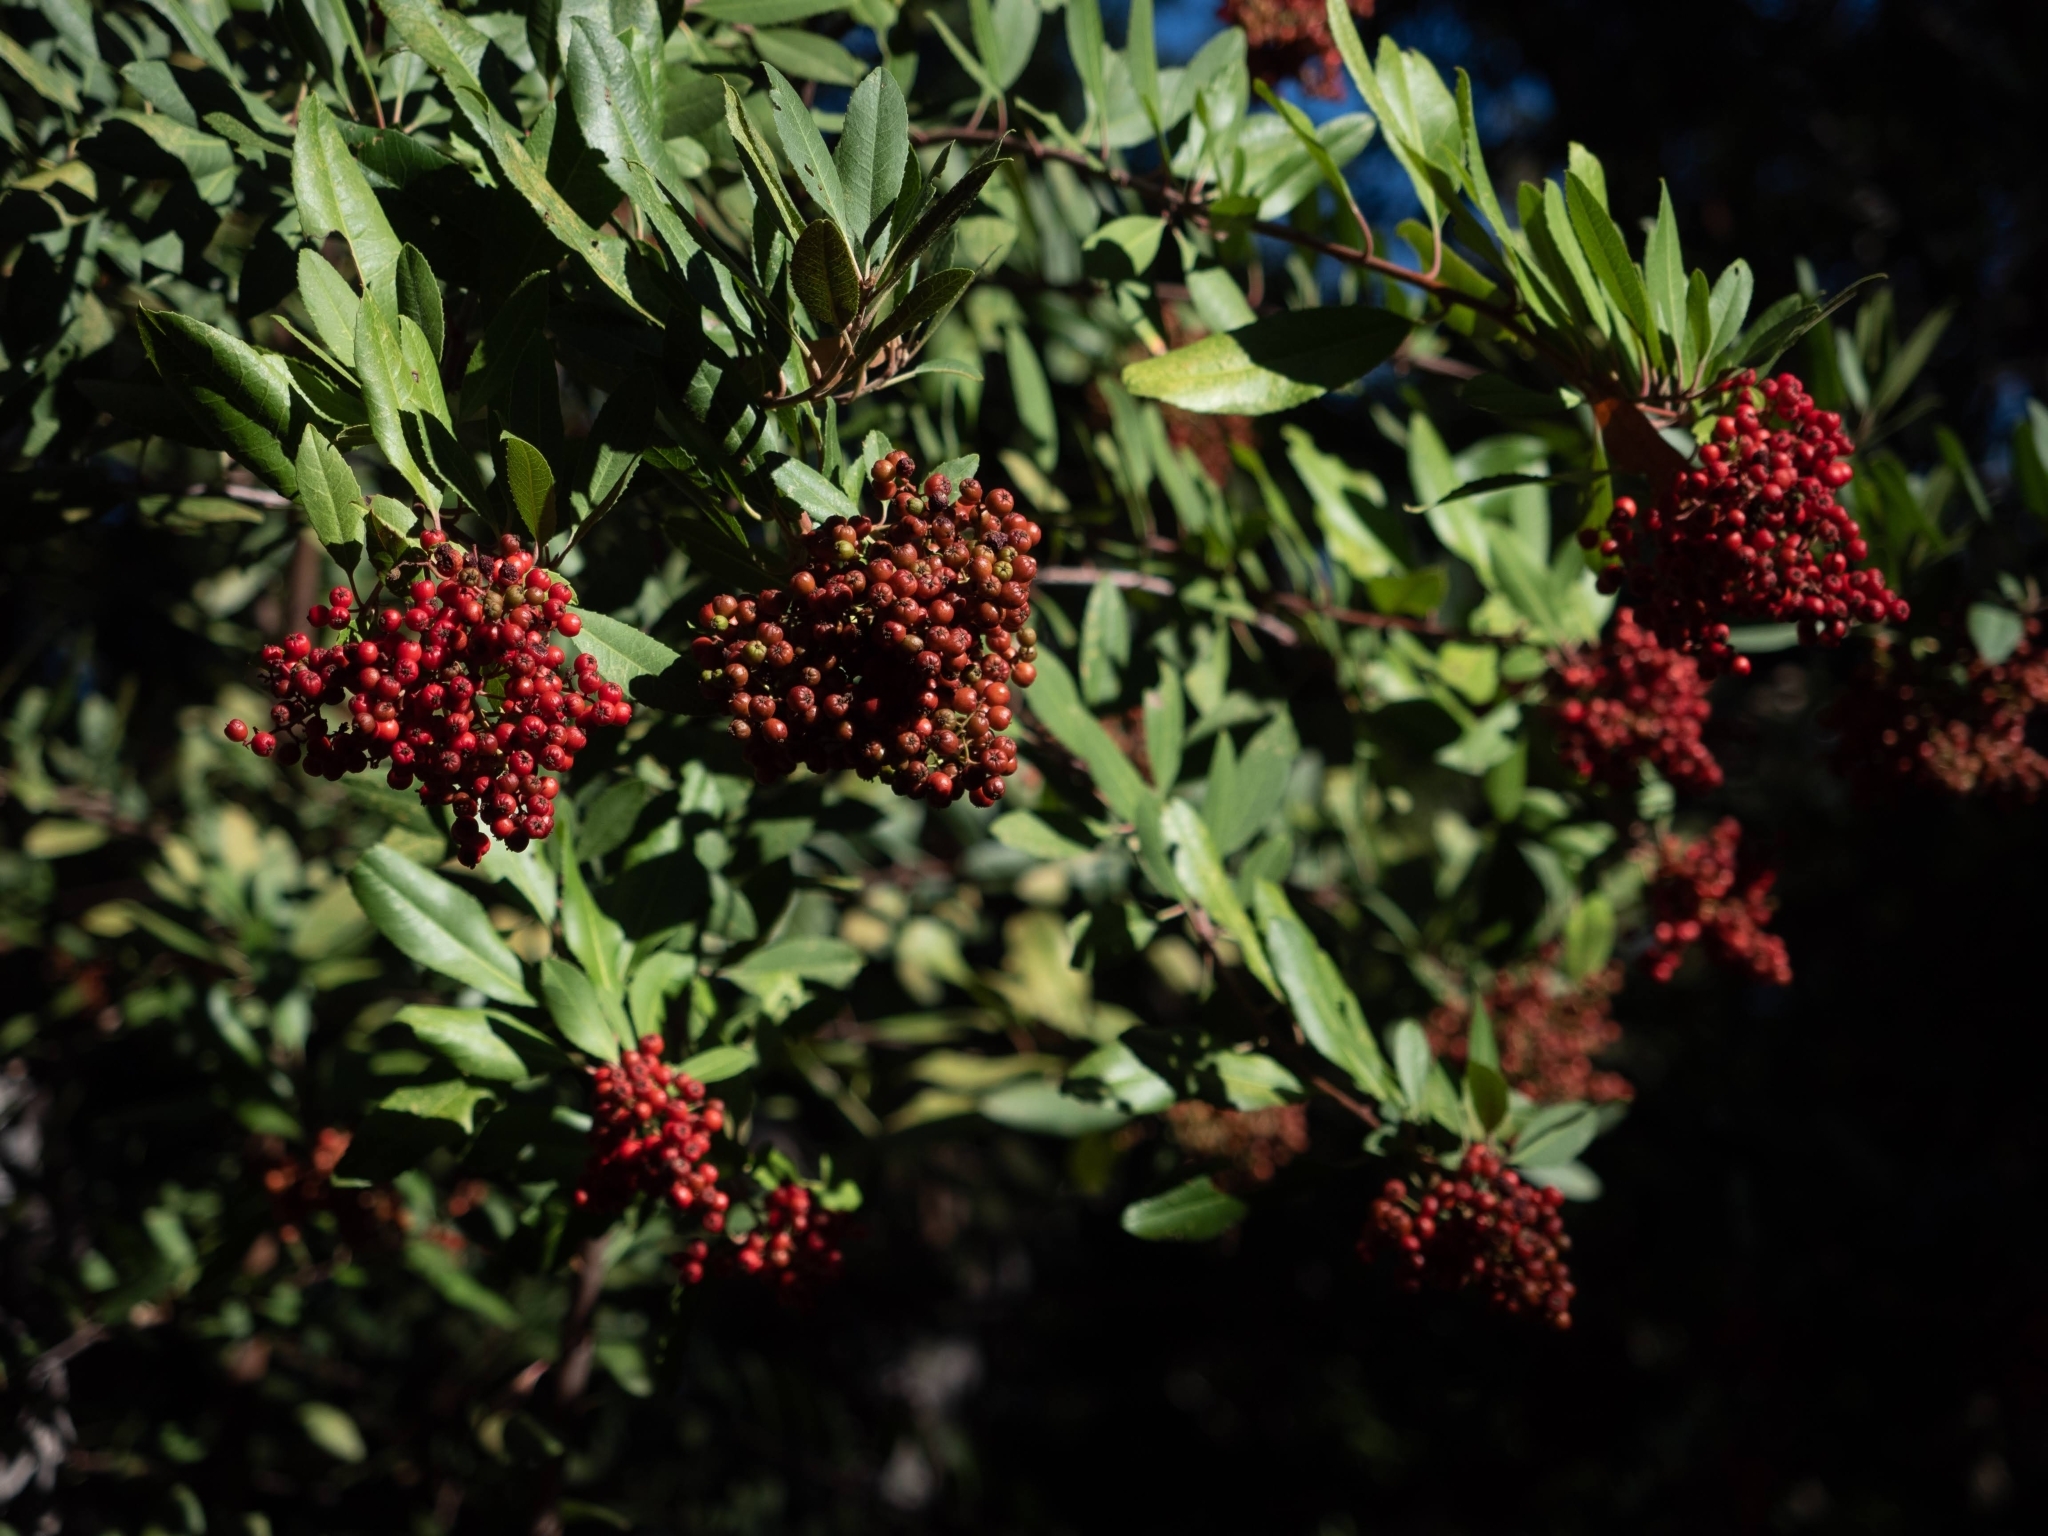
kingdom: Plantae
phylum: Tracheophyta
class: Magnoliopsida
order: Rosales
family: Rosaceae
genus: Heteromeles
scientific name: Heteromeles arbutifolia
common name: California-holly
